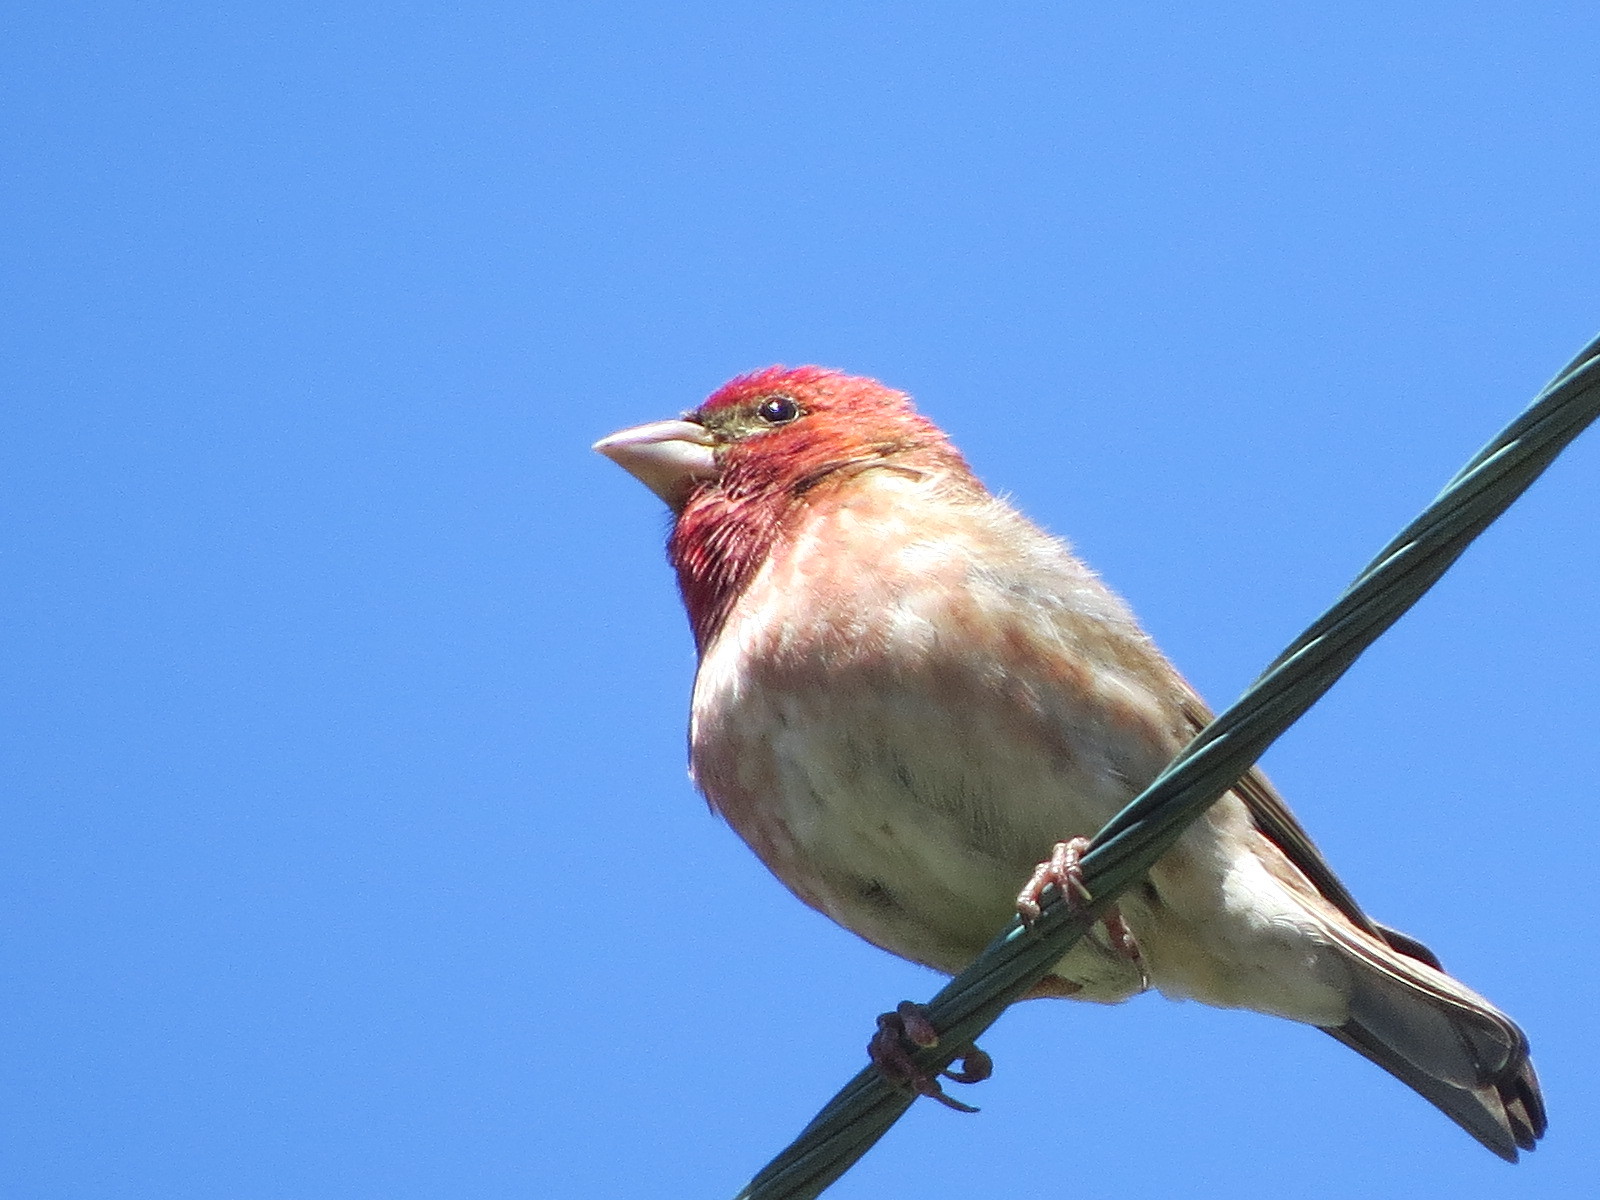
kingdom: Animalia
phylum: Chordata
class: Aves
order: Passeriformes
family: Fringillidae
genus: Haemorhous
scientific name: Haemorhous purpureus
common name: Purple finch
